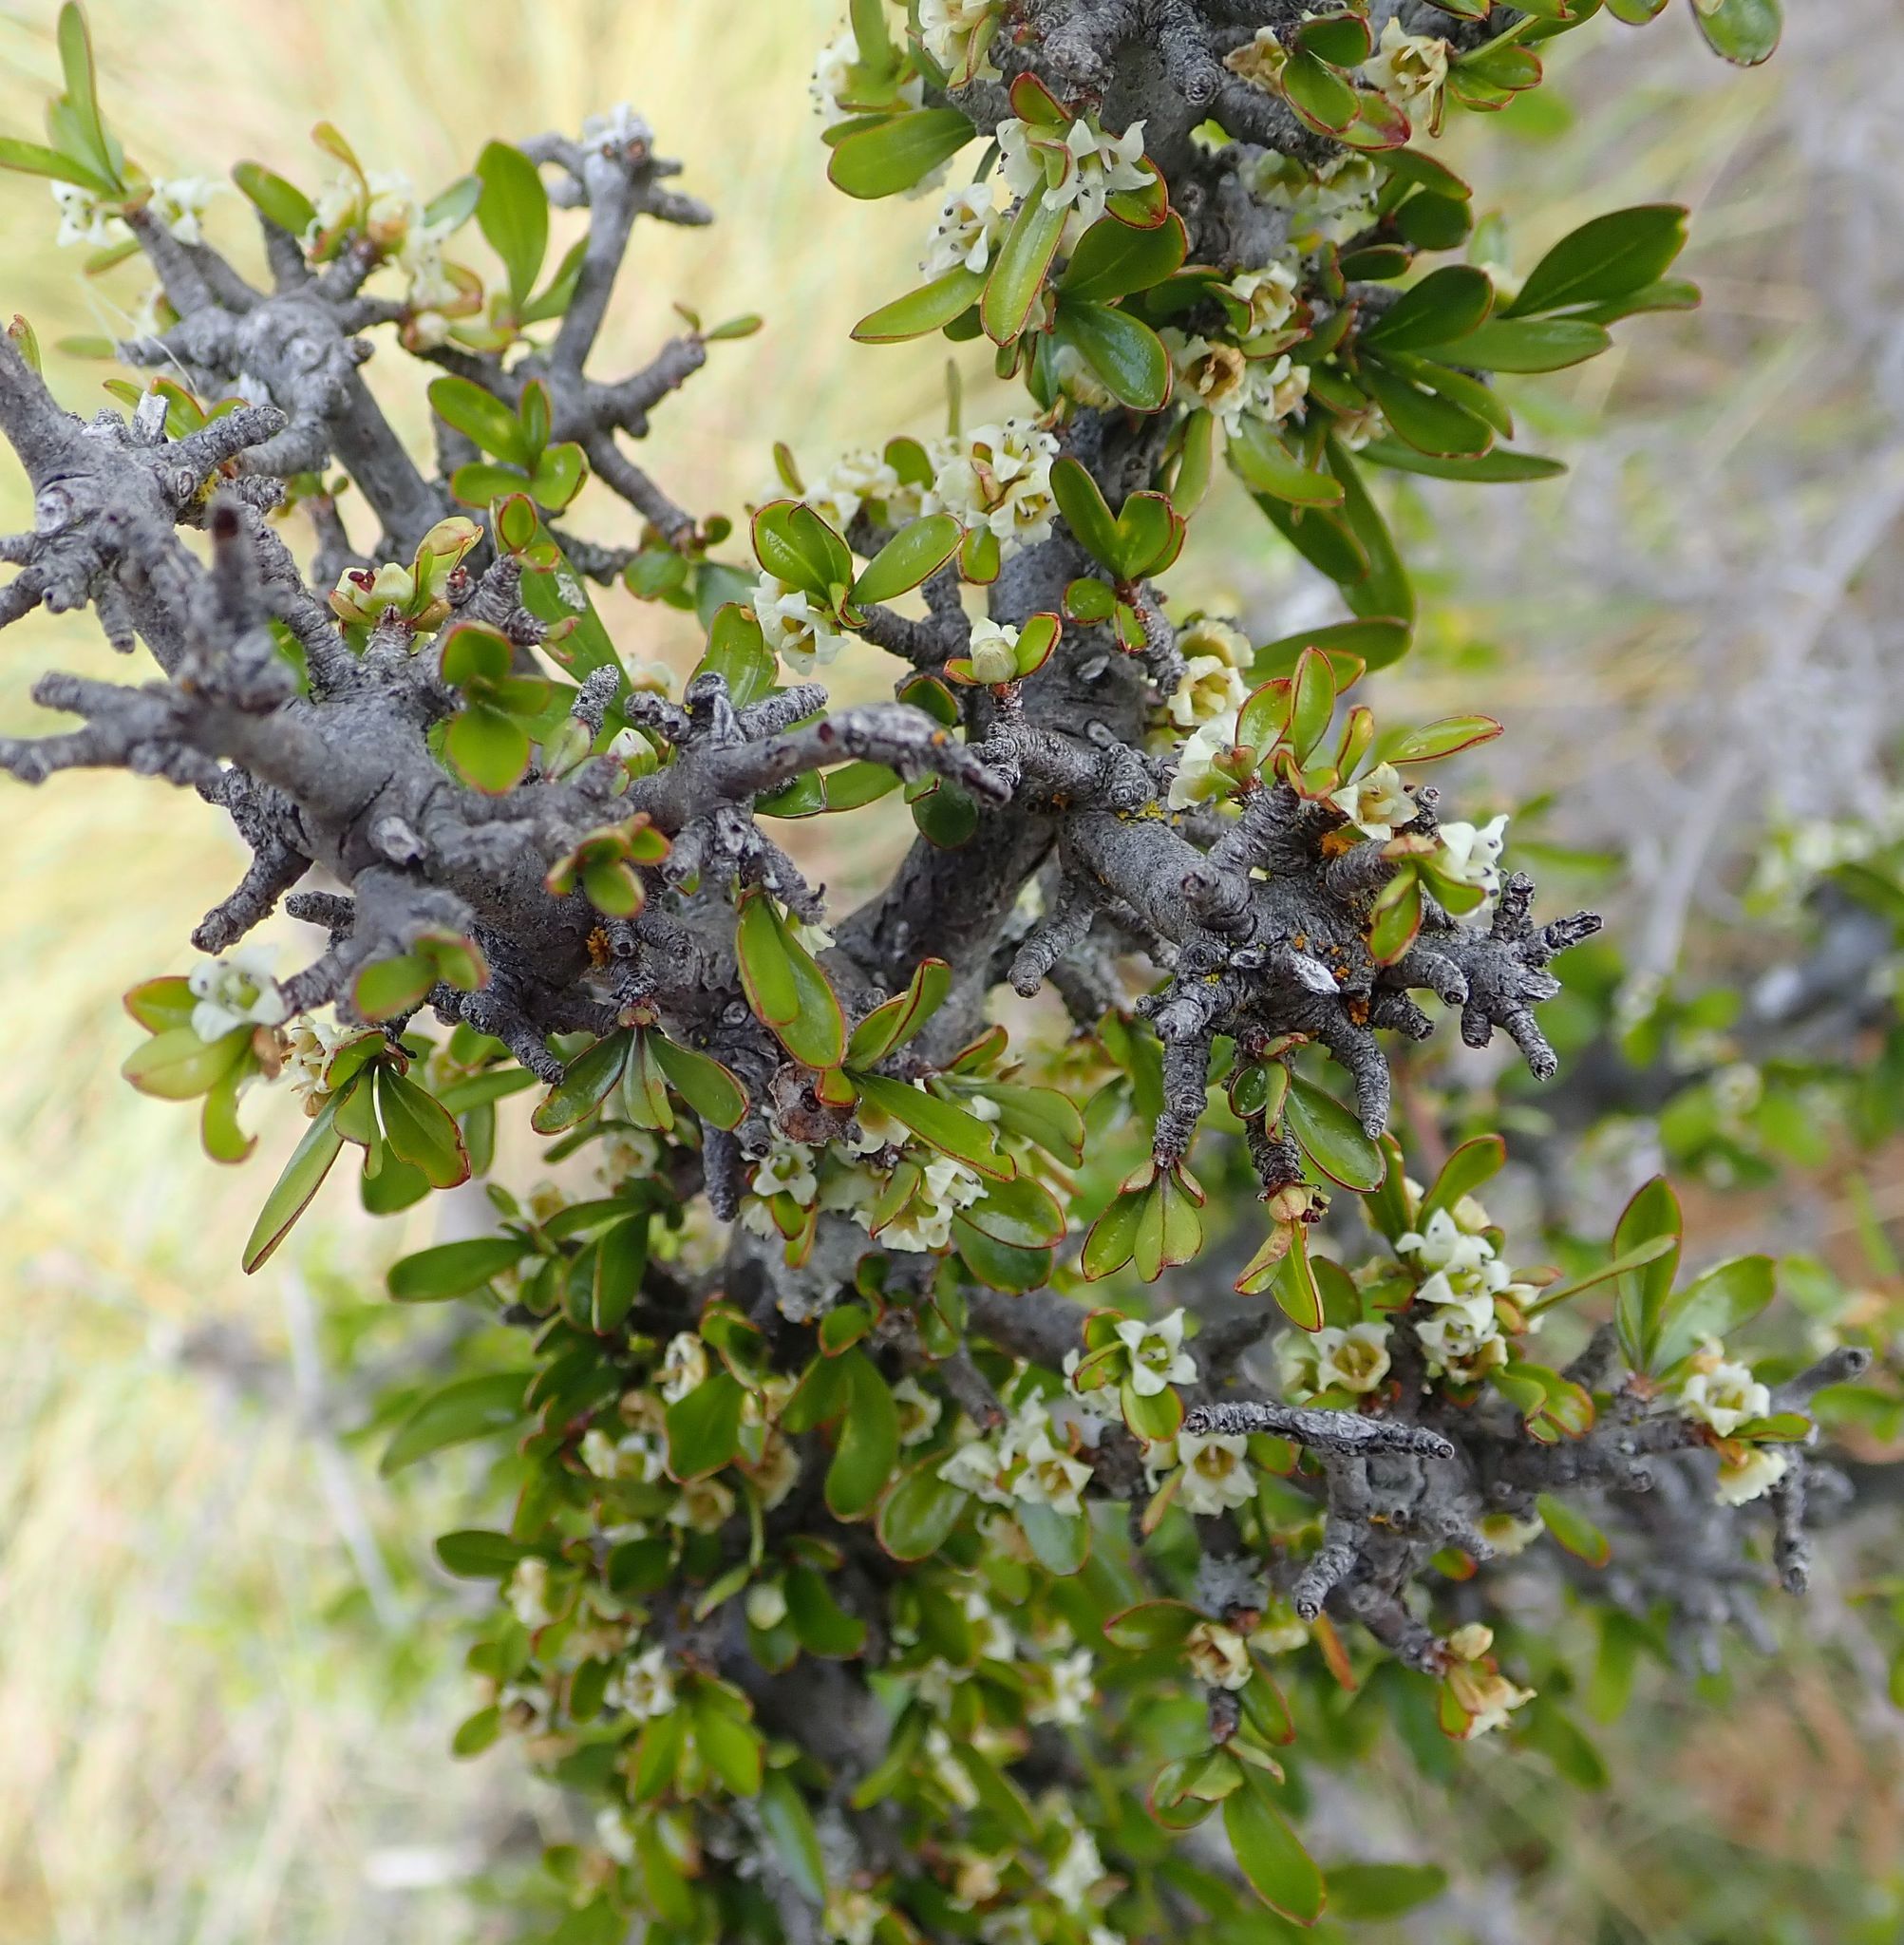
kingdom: Plantae
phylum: Tracheophyta
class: Magnoliopsida
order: Rosales
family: Rhamnaceae
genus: Discaria
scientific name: Discaria toumatou
